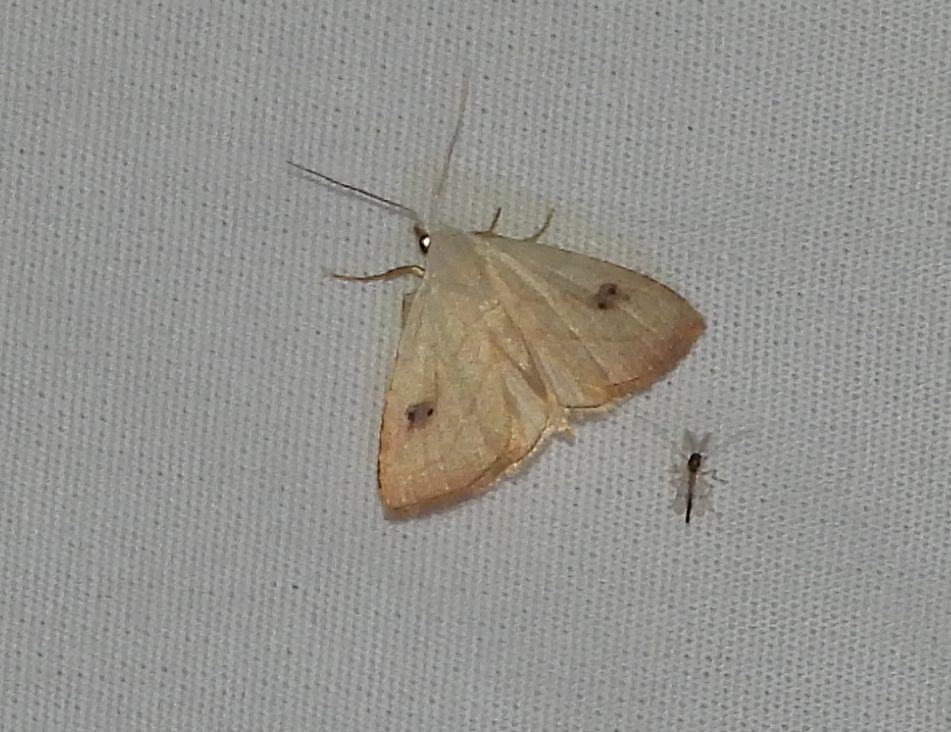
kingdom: Animalia
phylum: Arthropoda
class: Insecta
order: Lepidoptera
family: Erebidae
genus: Rivula
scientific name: Rivula propinqualis
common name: Spotted grass moth
